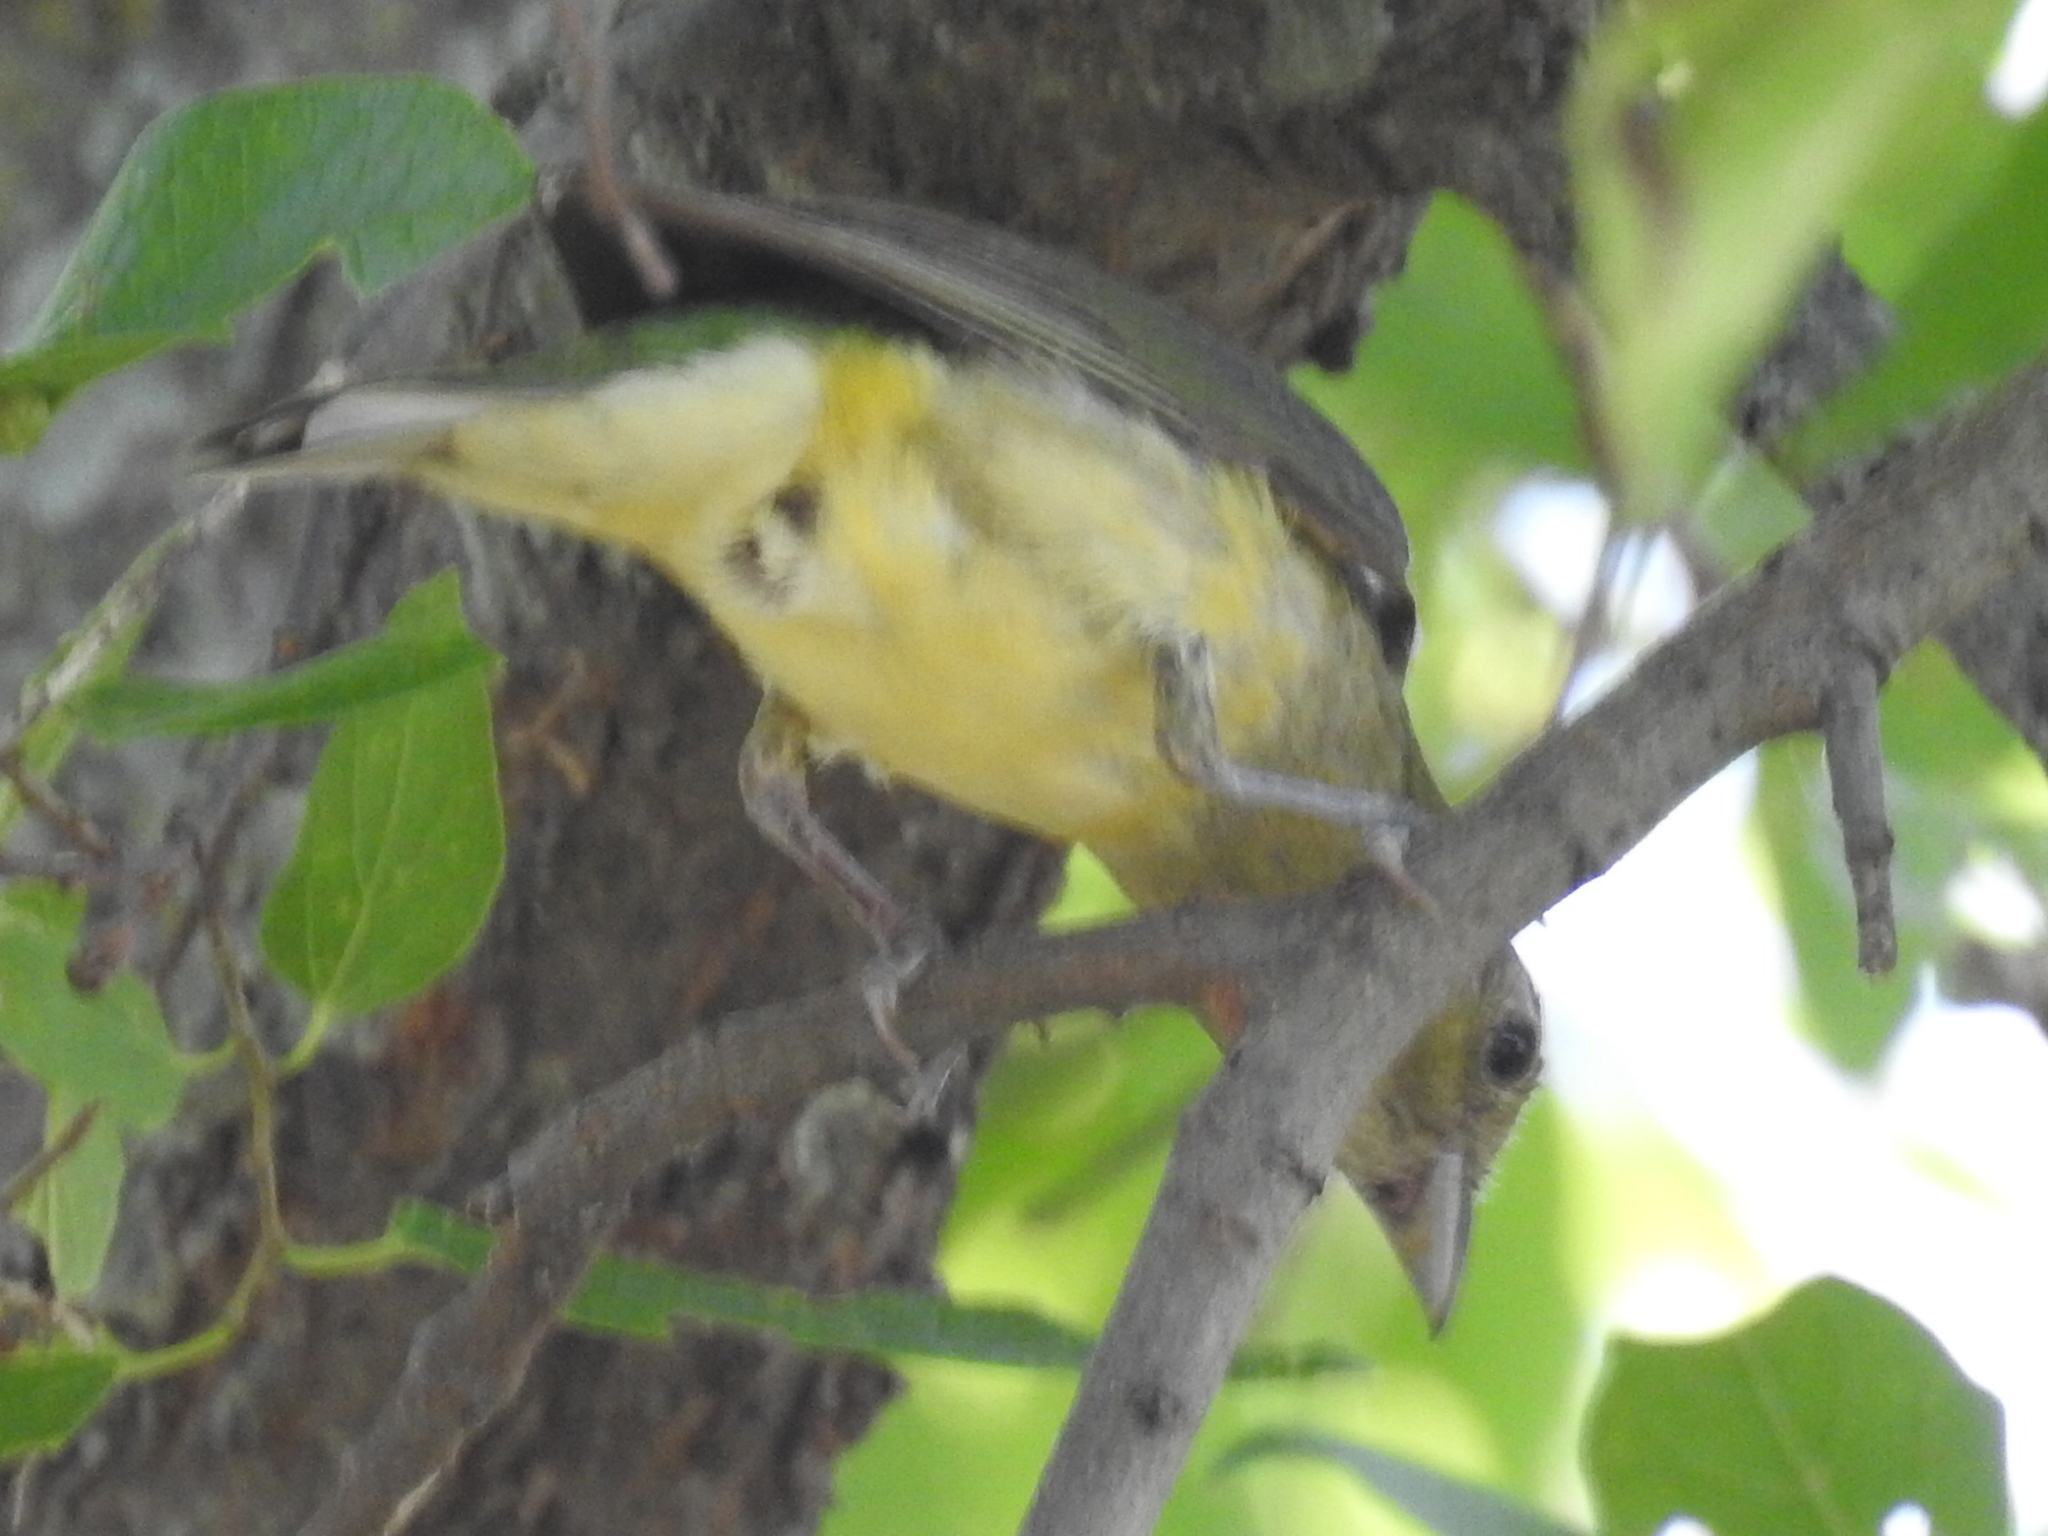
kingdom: Animalia
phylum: Chordata
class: Aves
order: Passeriformes
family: Cardinalidae
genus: Passerina
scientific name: Passerina ciris
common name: Painted bunting
